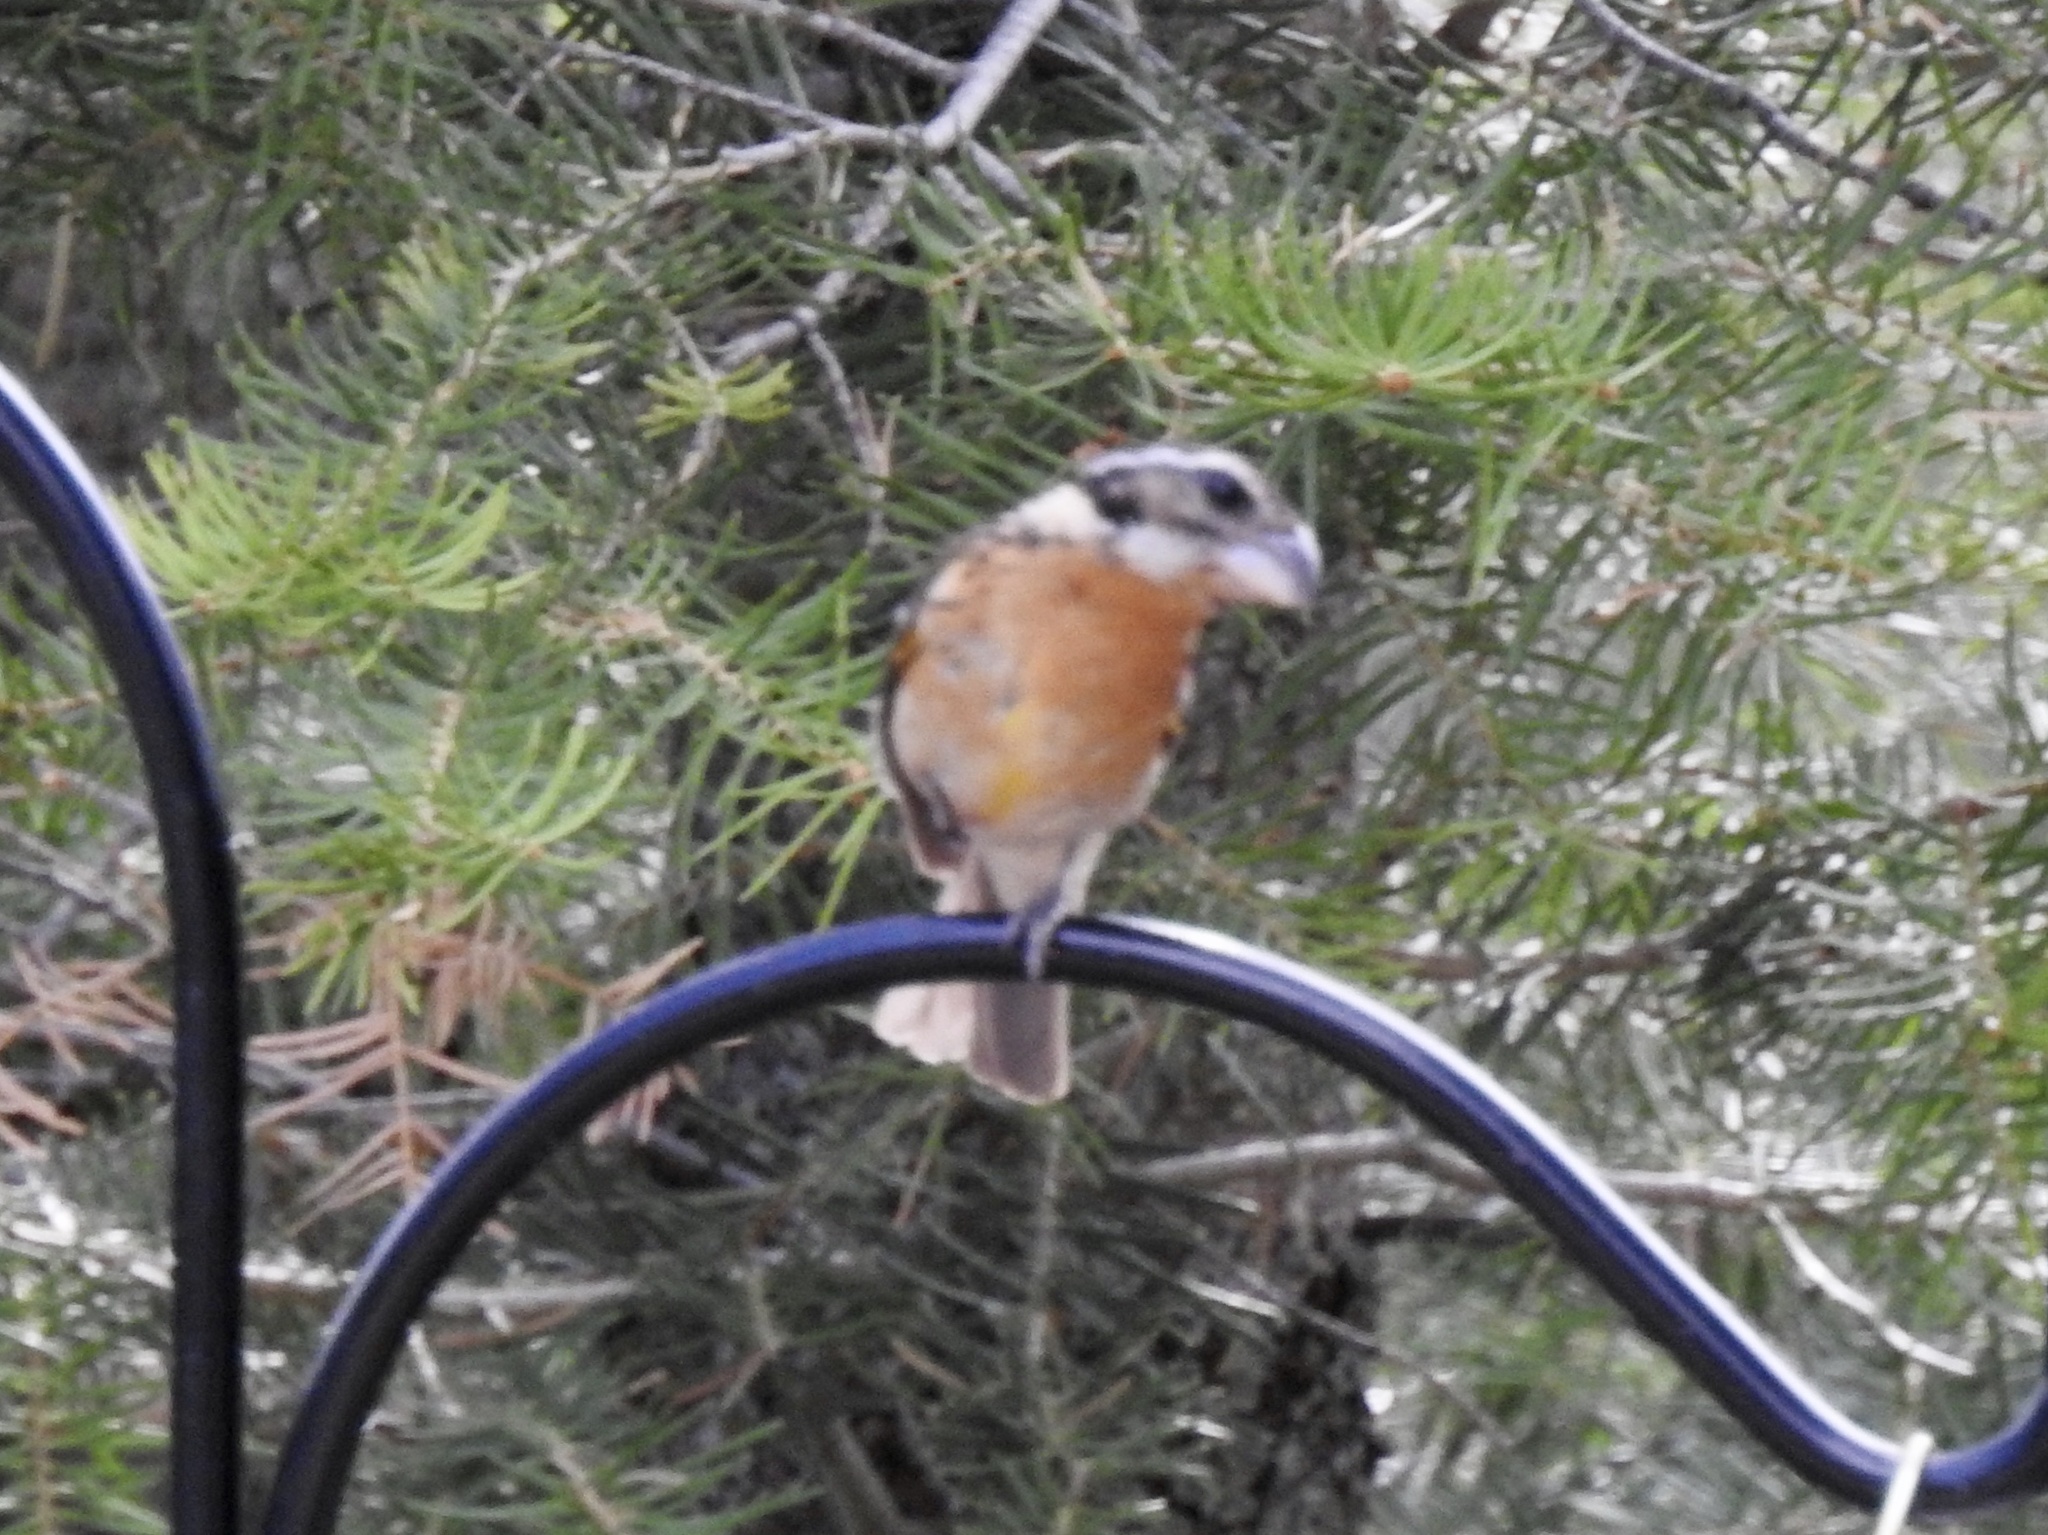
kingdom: Animalia
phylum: Chordata
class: Aves
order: Passeriformes
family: Cardinalidae
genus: Pheucticus
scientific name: Pheucticus melanocephalus
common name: Black-headed grosbeak
